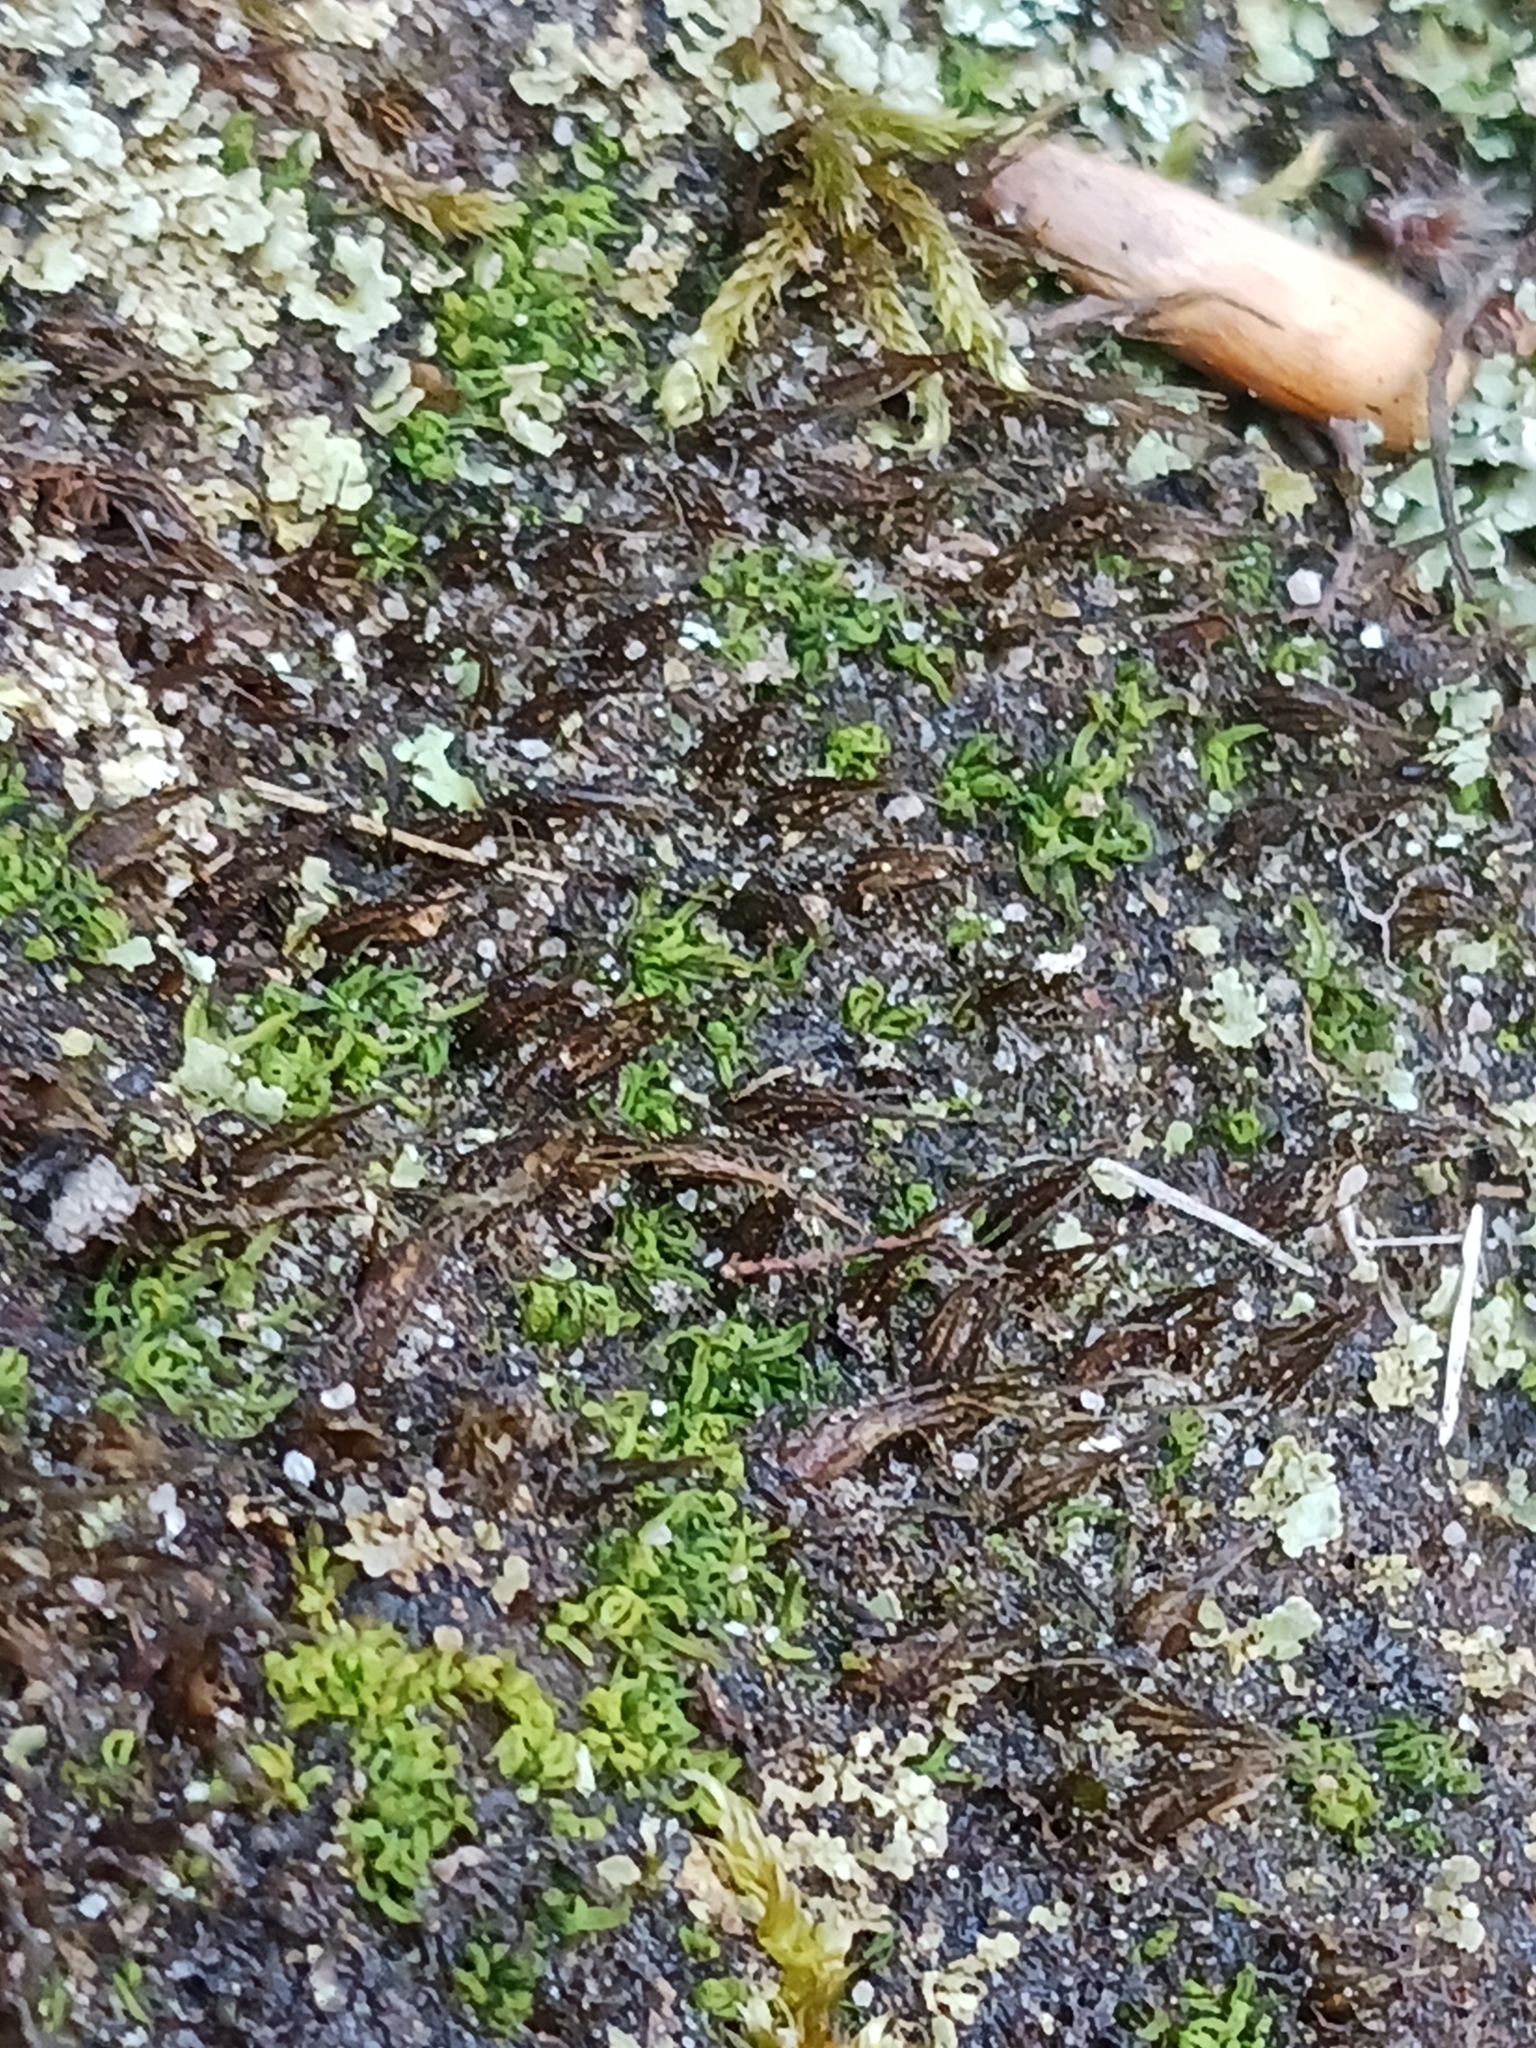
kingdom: Plantae
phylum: Bryophyta
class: Bryopsida
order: Diphysciales
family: Diphysciaceae
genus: Diphyscium
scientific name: Diphyscium foliosum
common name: Nut moss
